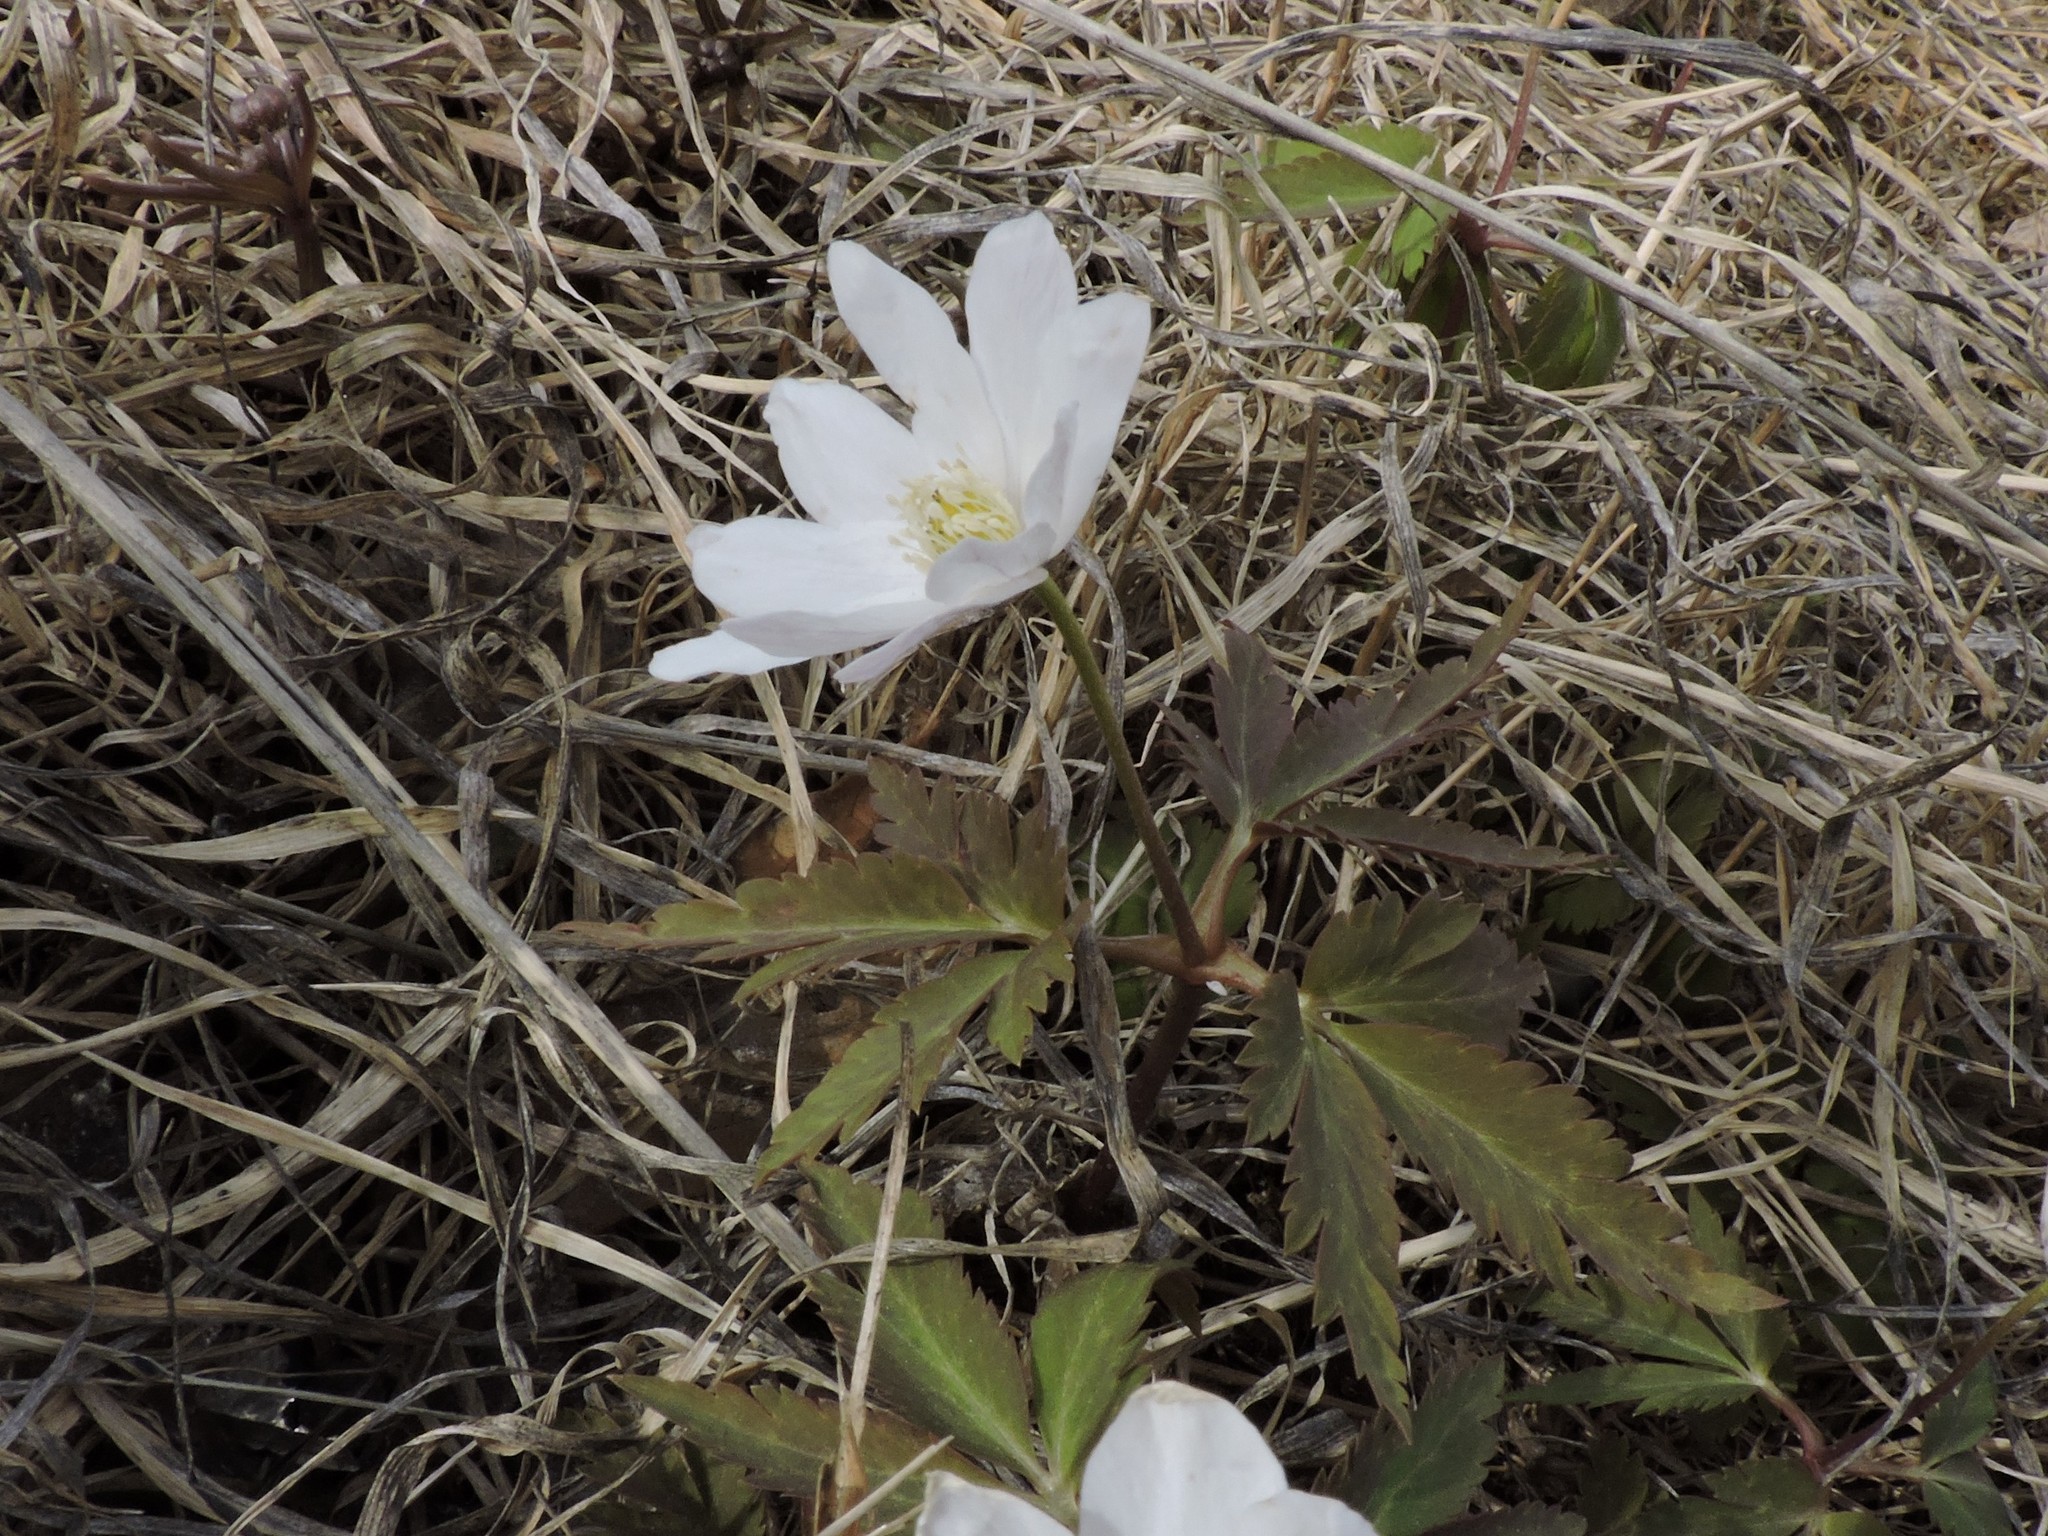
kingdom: Plantae
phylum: Tracheophyta
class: Magnoliopsida
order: Ranunculales
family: Ranunculaceae
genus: Anemone
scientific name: Anemone altaica
